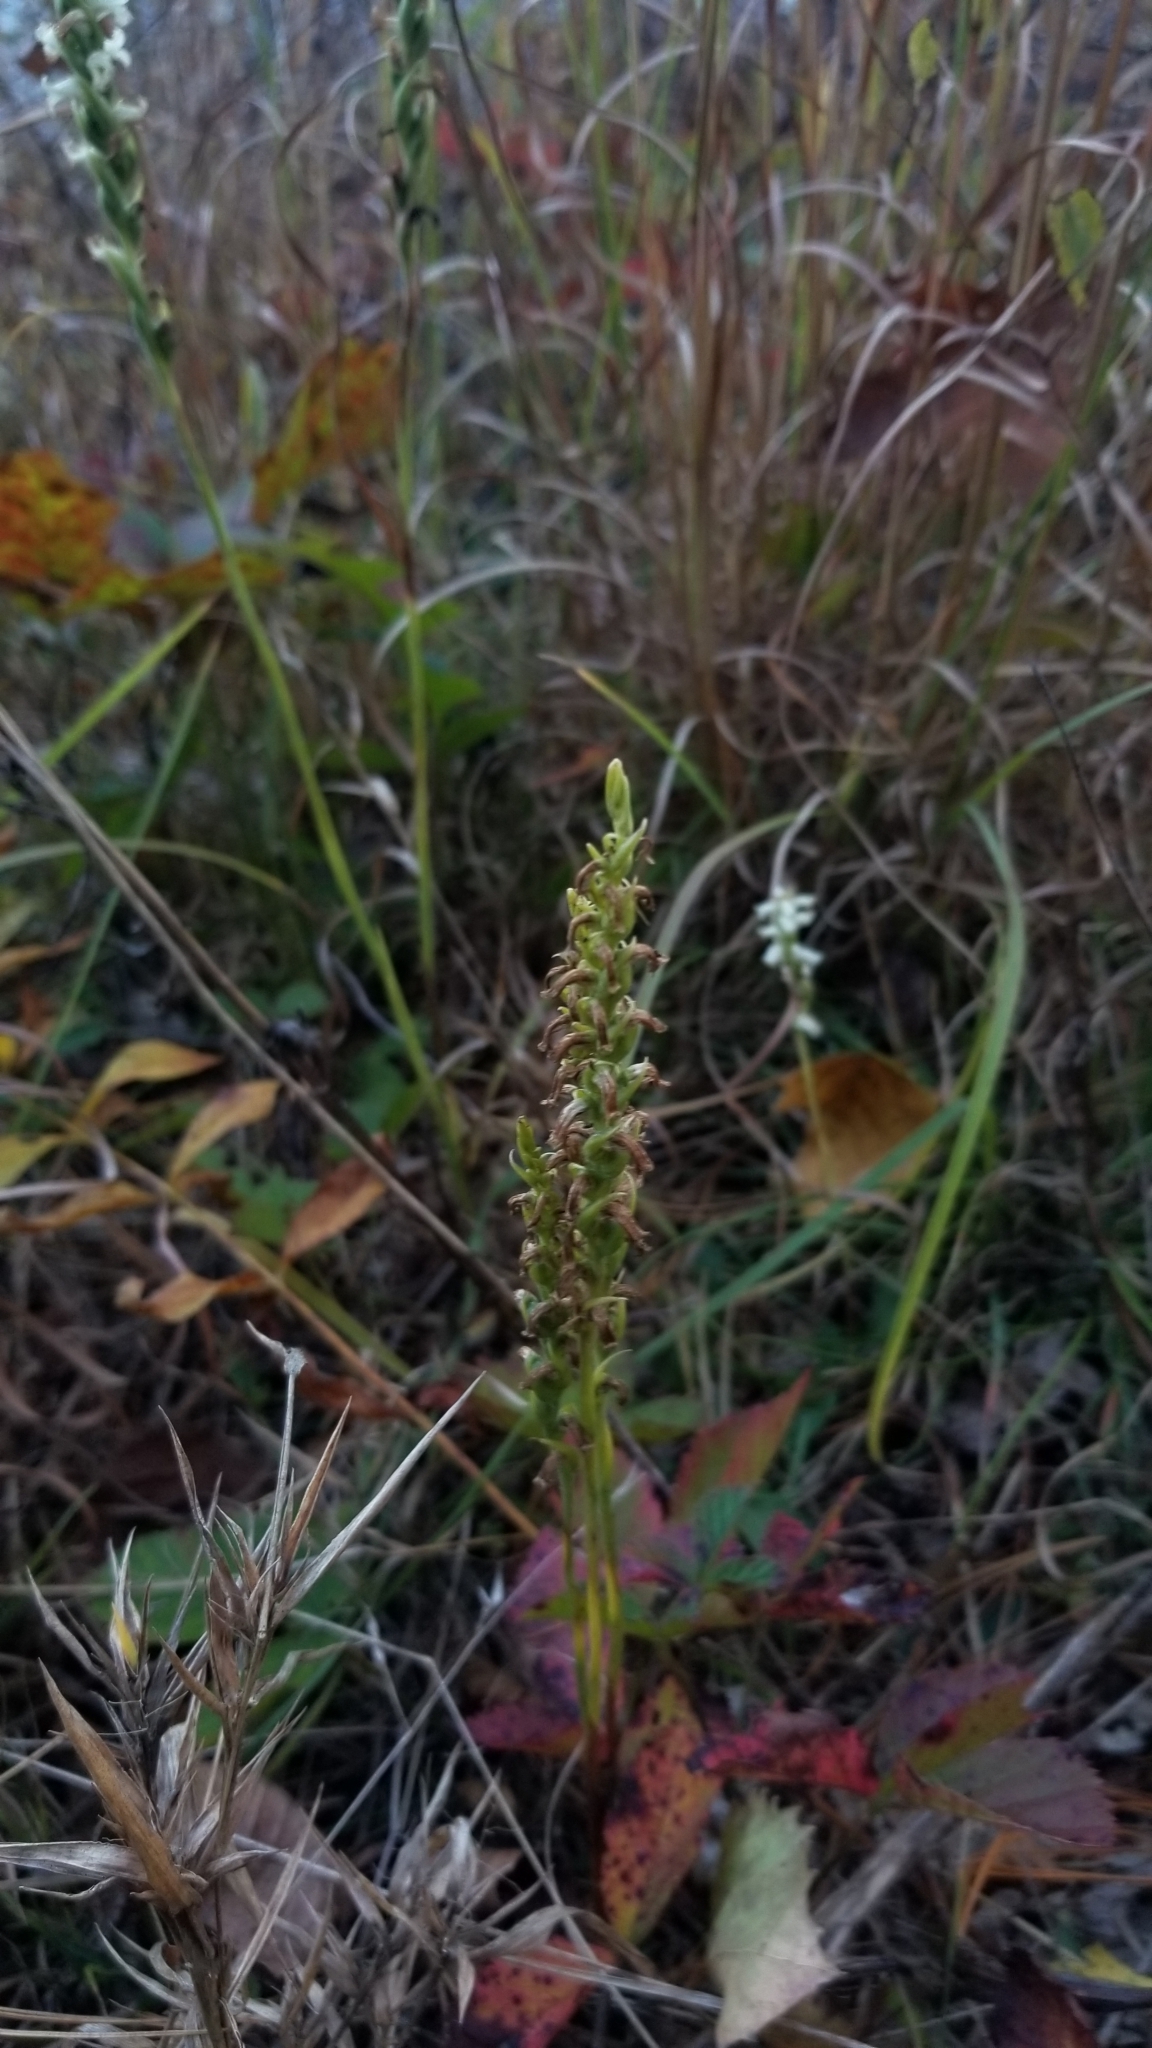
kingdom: Plantae
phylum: Tracheophyta
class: Liliopsida
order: Asparagales
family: Orchidaceae
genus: Spiranthes
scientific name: Spiranthes ochroleuca
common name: Yellow ladies'-tresses
